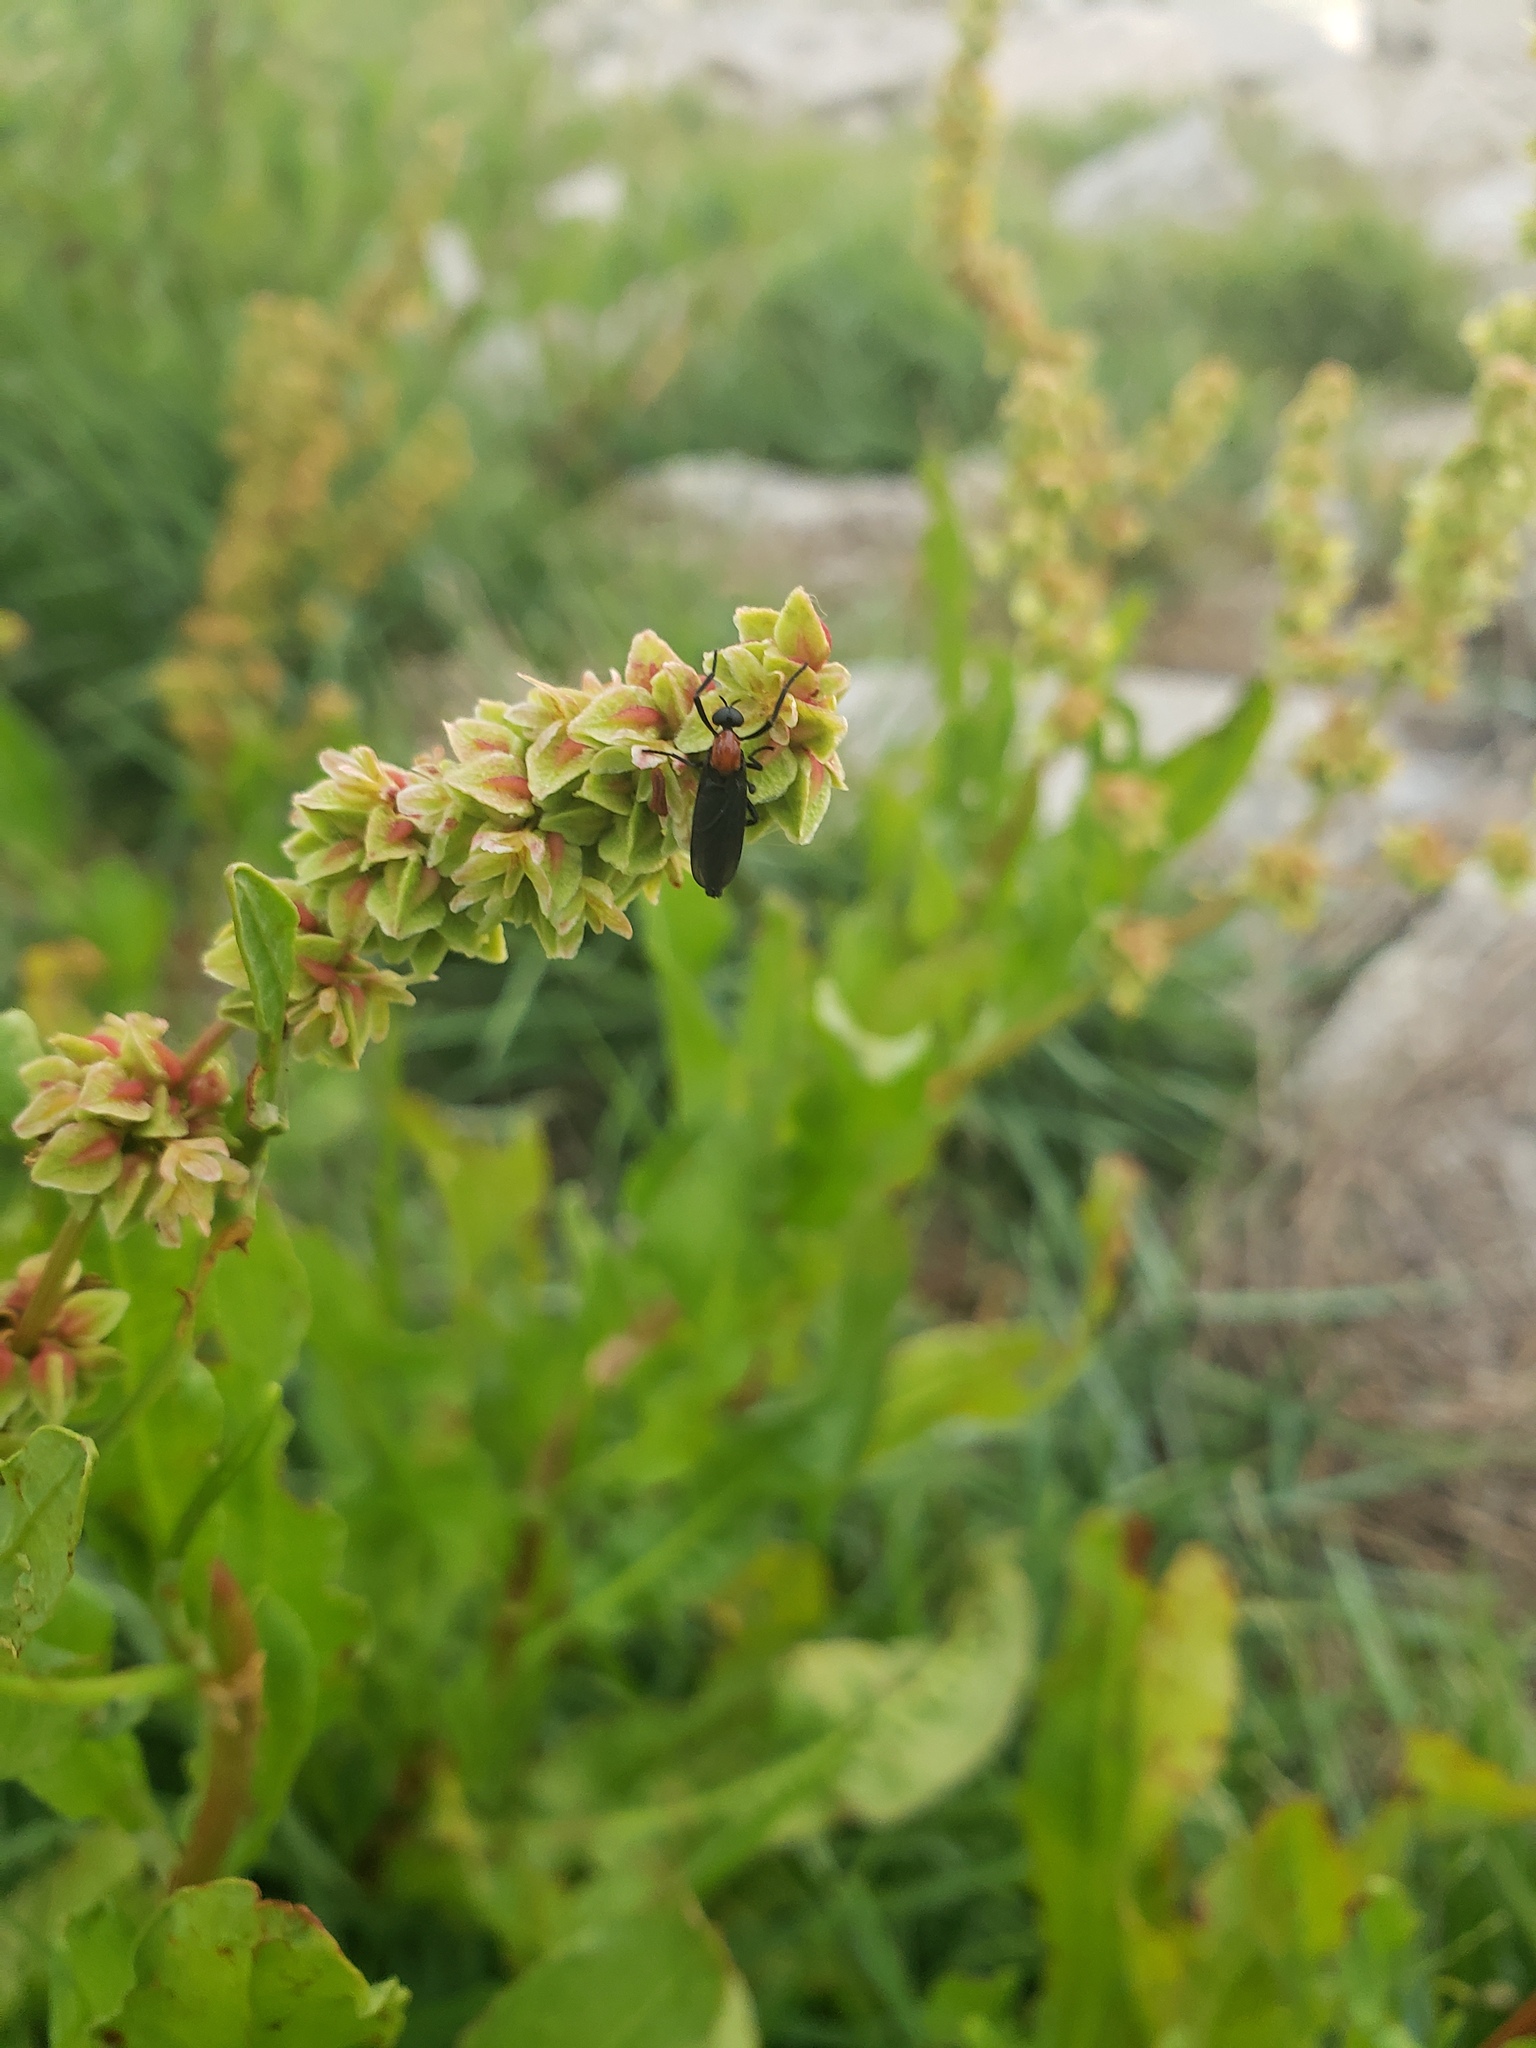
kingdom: Animalia
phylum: Arthropoda
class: Insecta
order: Diptera
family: Bibionidae
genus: Plecia
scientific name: Plecia nearctica
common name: March fly
